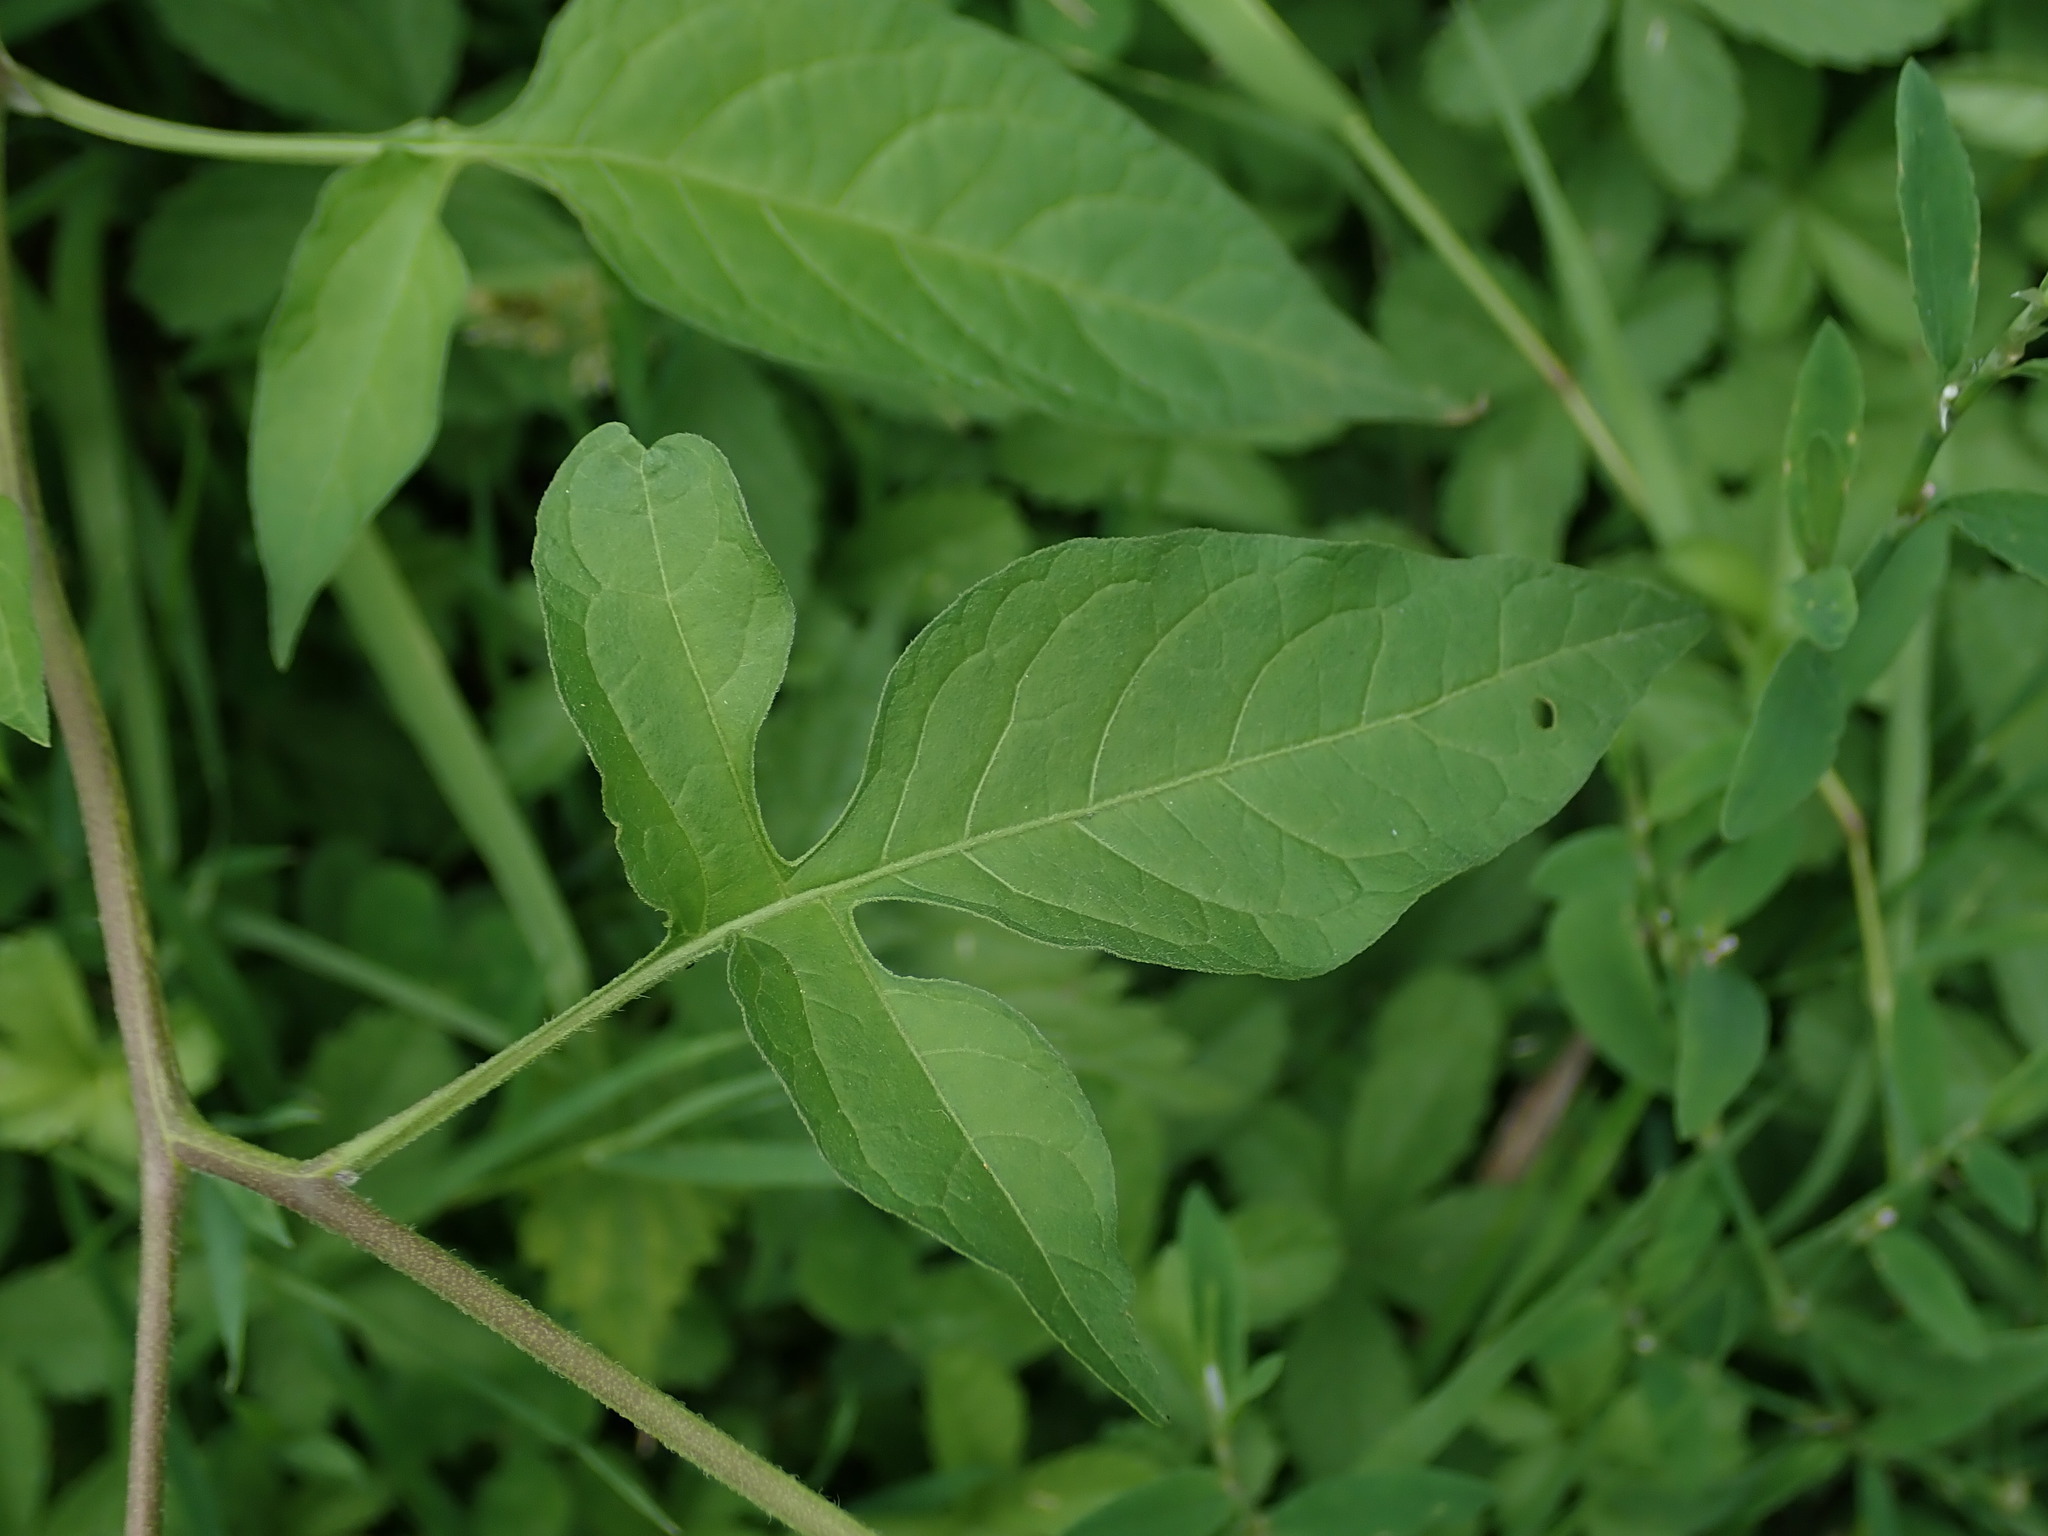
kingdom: Plantae
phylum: Tracheophyta
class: Magnoliopsida
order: Solanales
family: Solanaceae
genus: Solanum
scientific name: Solanum dulcamara
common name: Climbing nightshade
